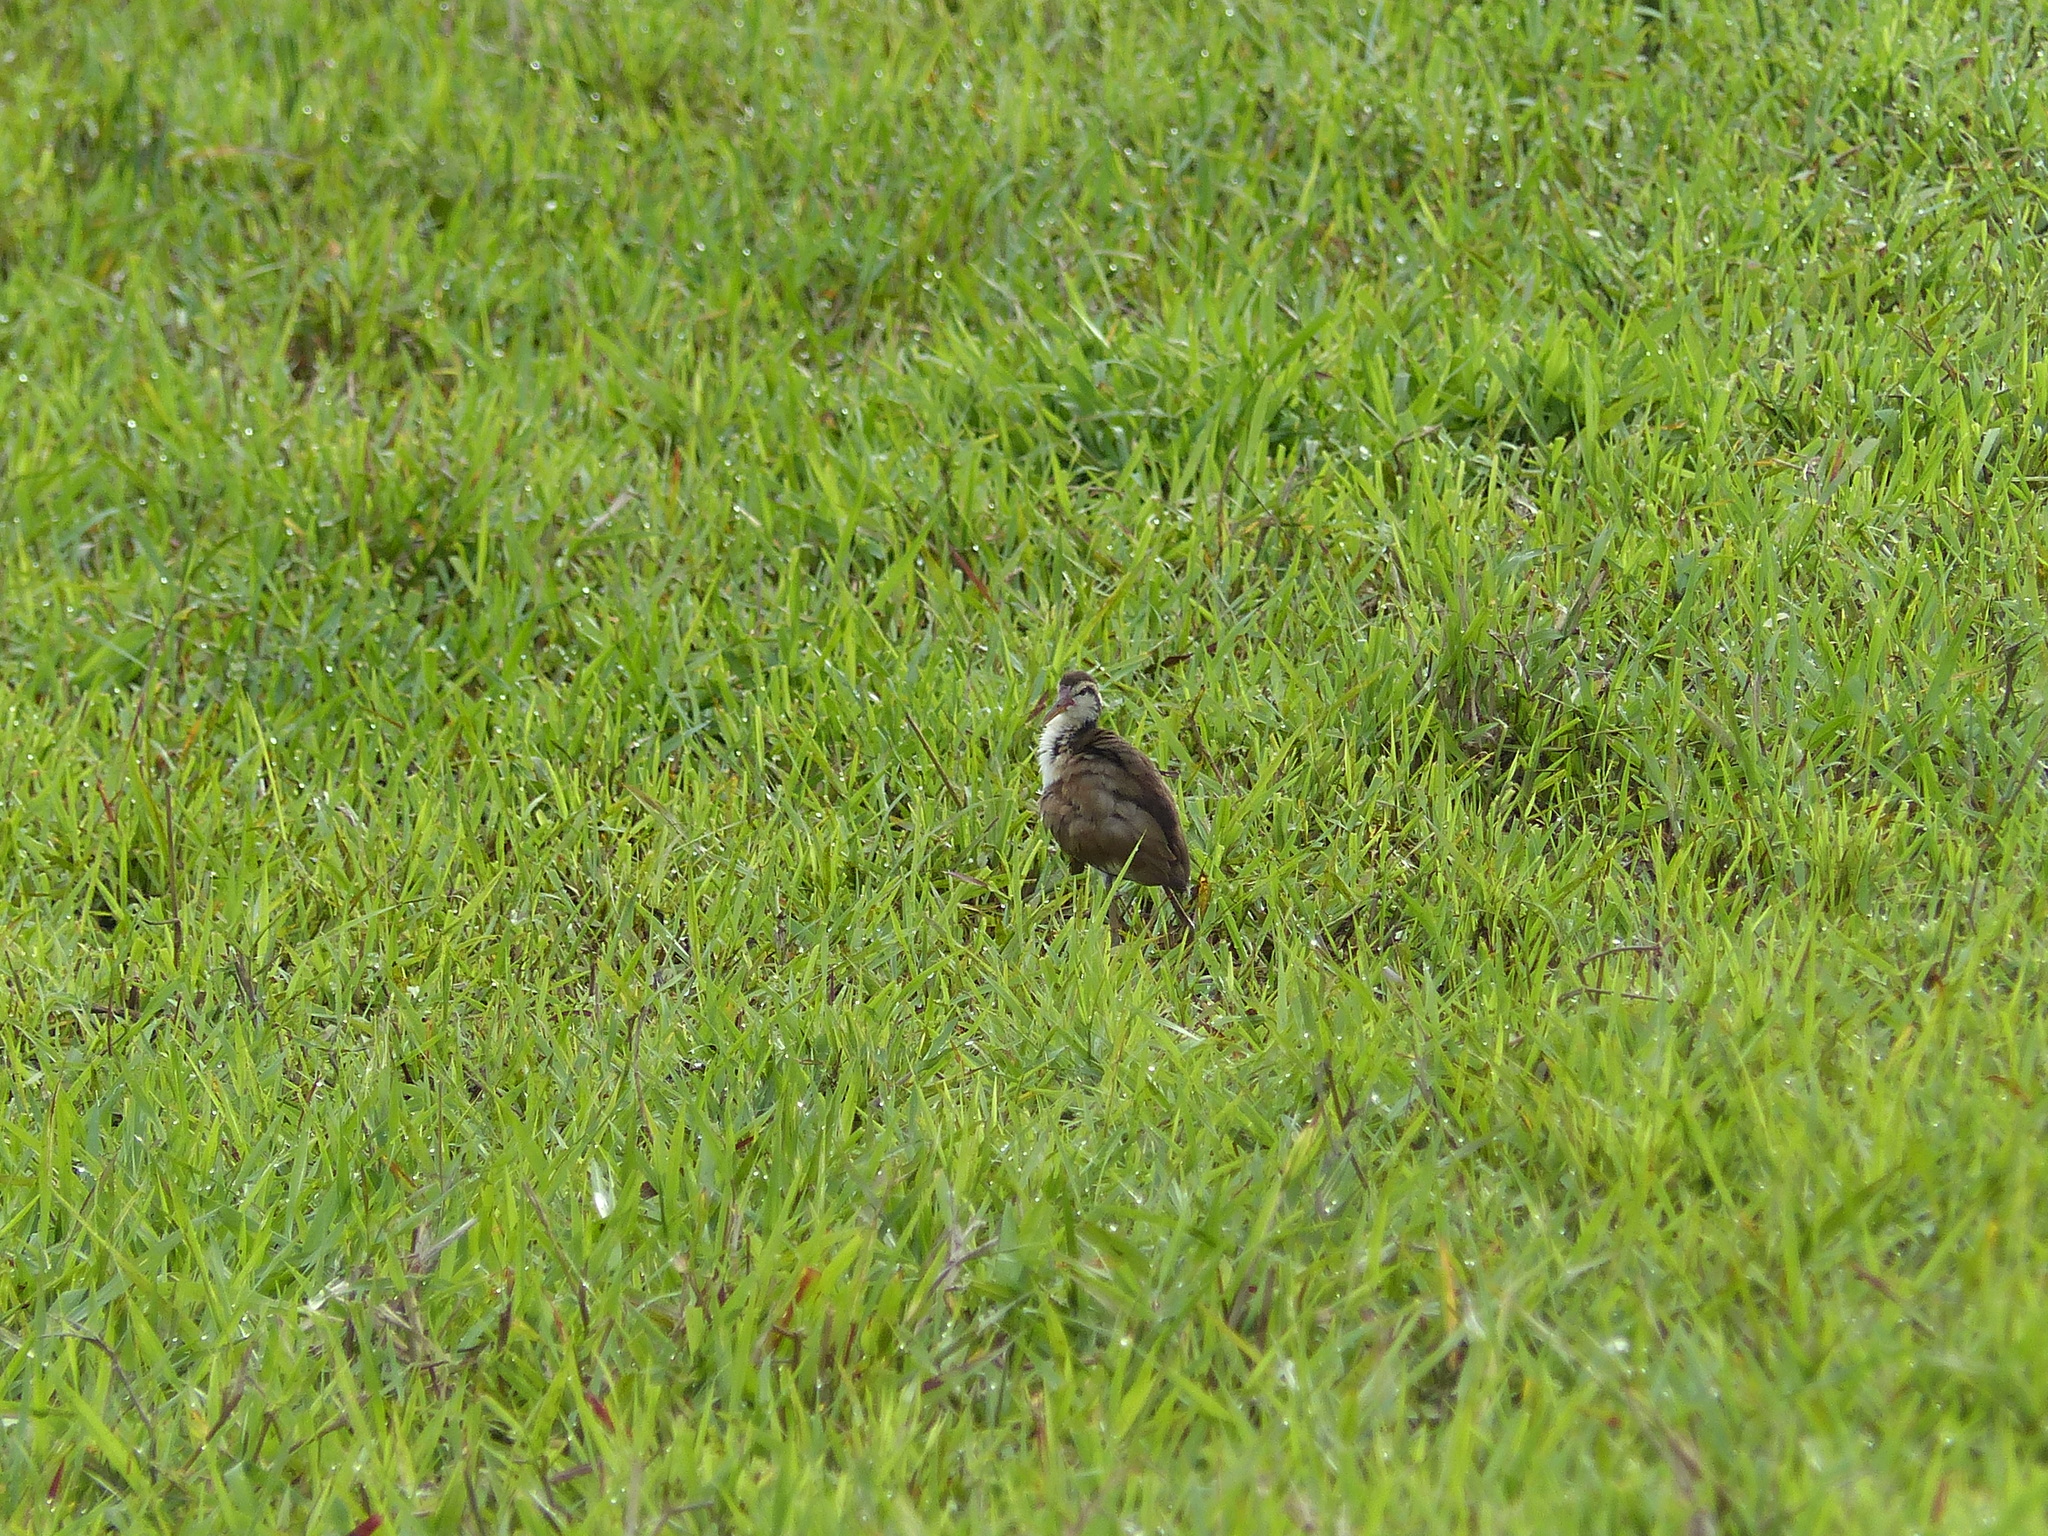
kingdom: Animalia
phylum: Chordata
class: Aves
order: Charadriiformes
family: Jacanidae
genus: Jacana
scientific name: Jacana jacana
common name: Wattled jacana
